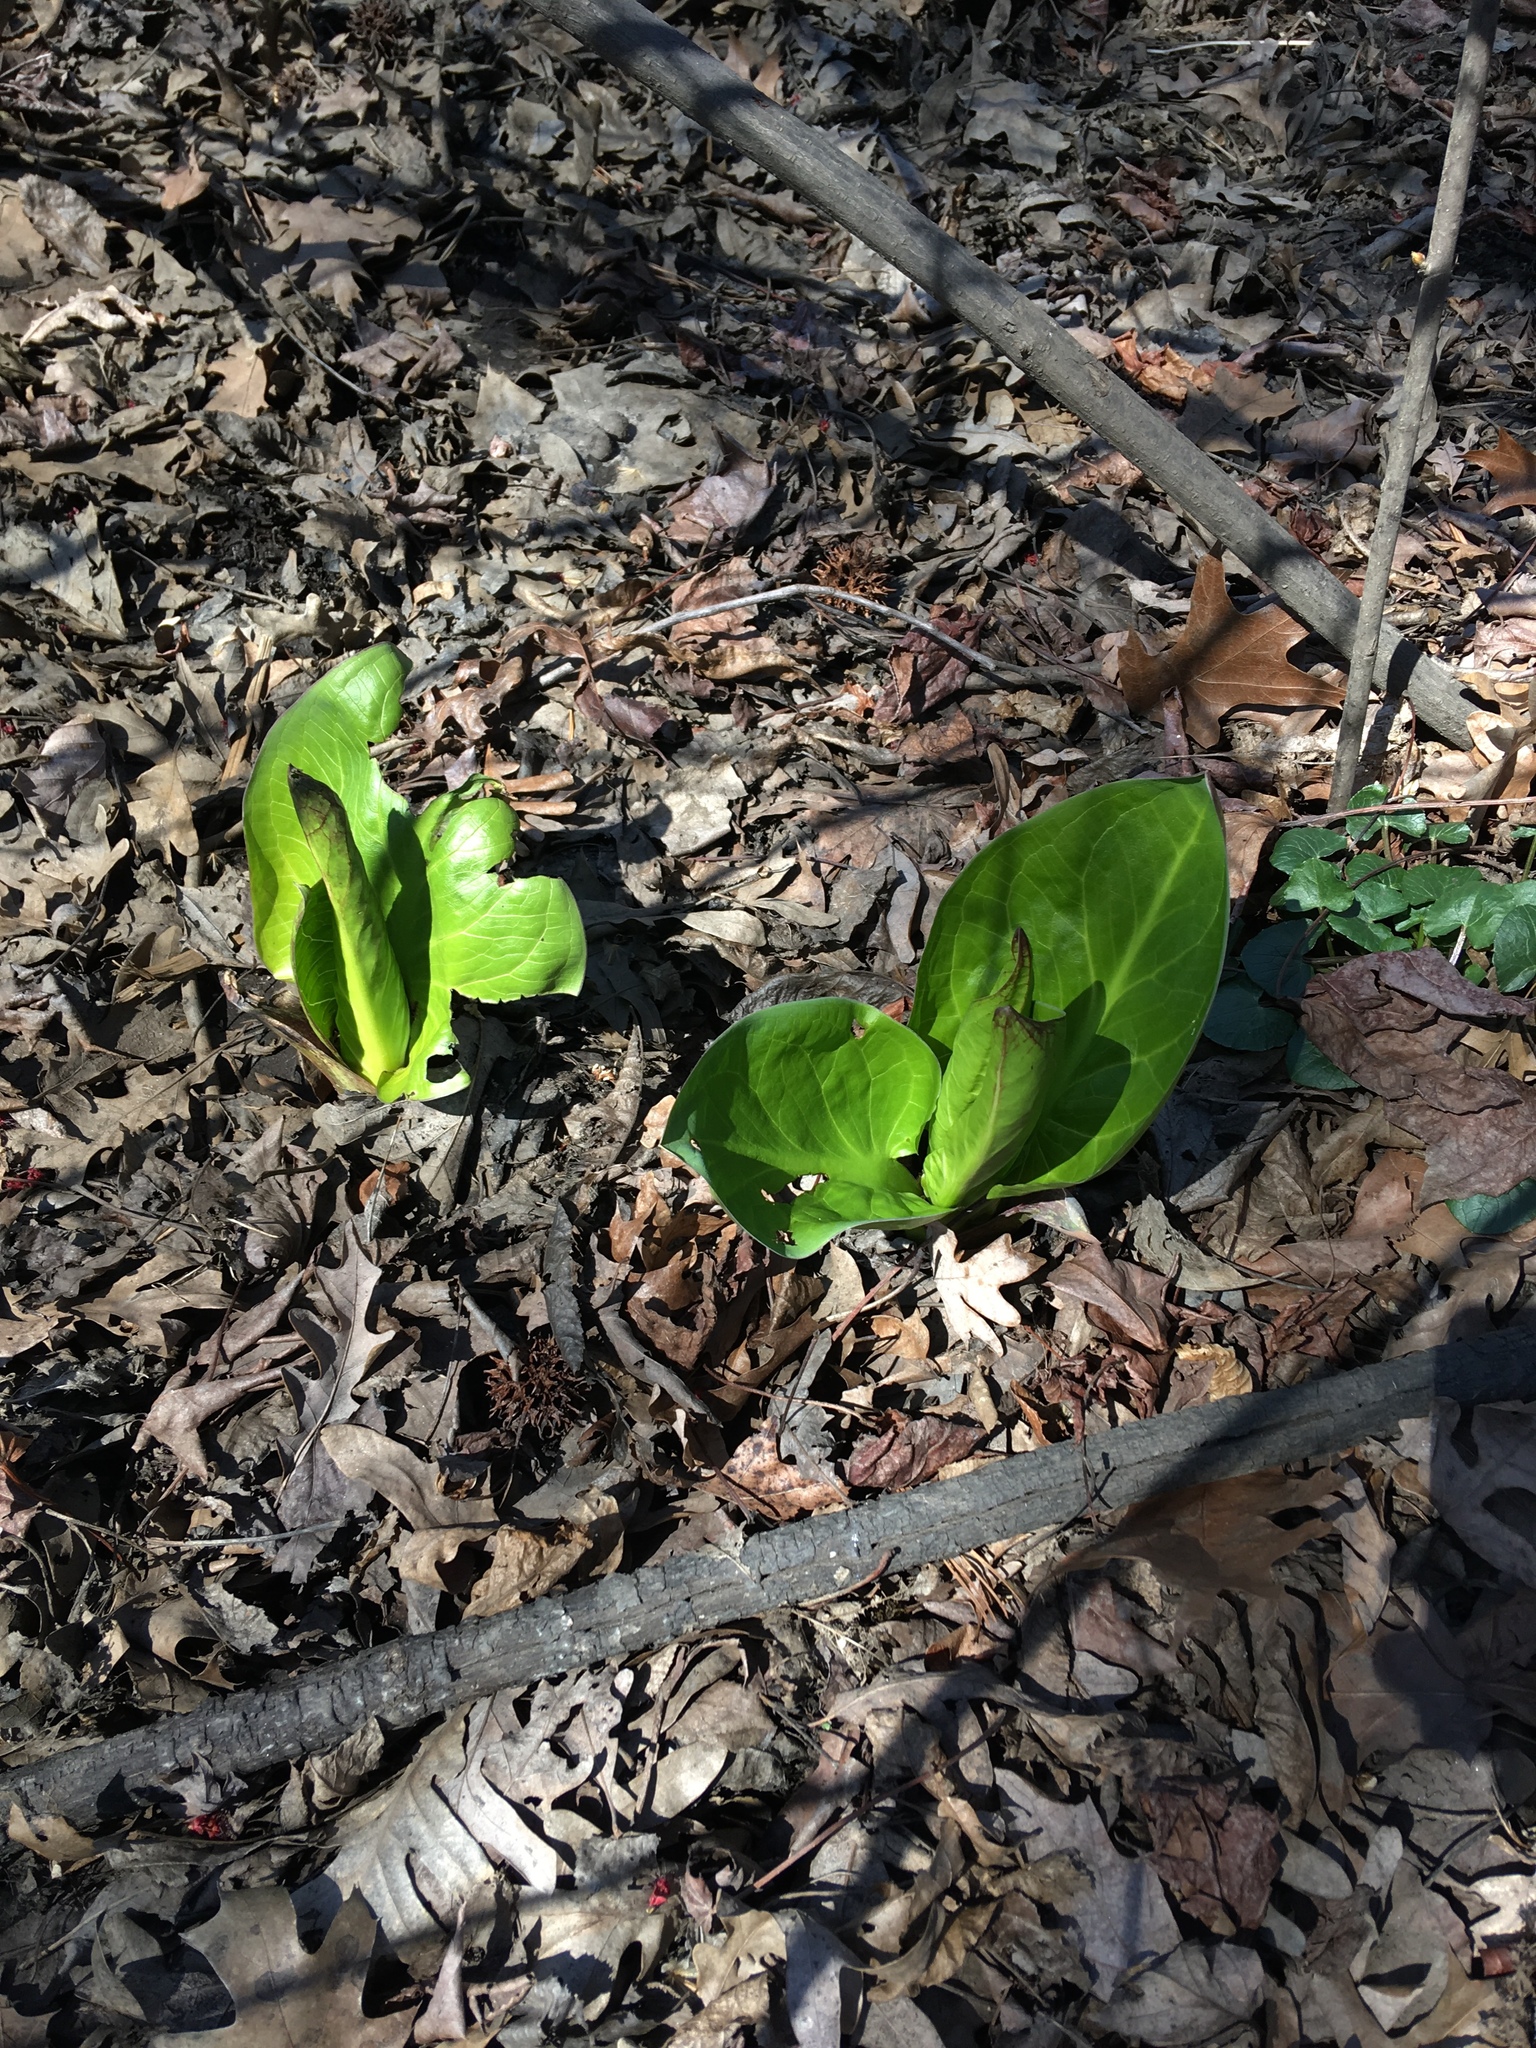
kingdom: Plantae
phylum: Tracheophyta
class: Liliopsida
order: Alismatales
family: Araceae
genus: Symplocarpus
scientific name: Symplocarpus foetidus
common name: Eastern skunk cabbage
